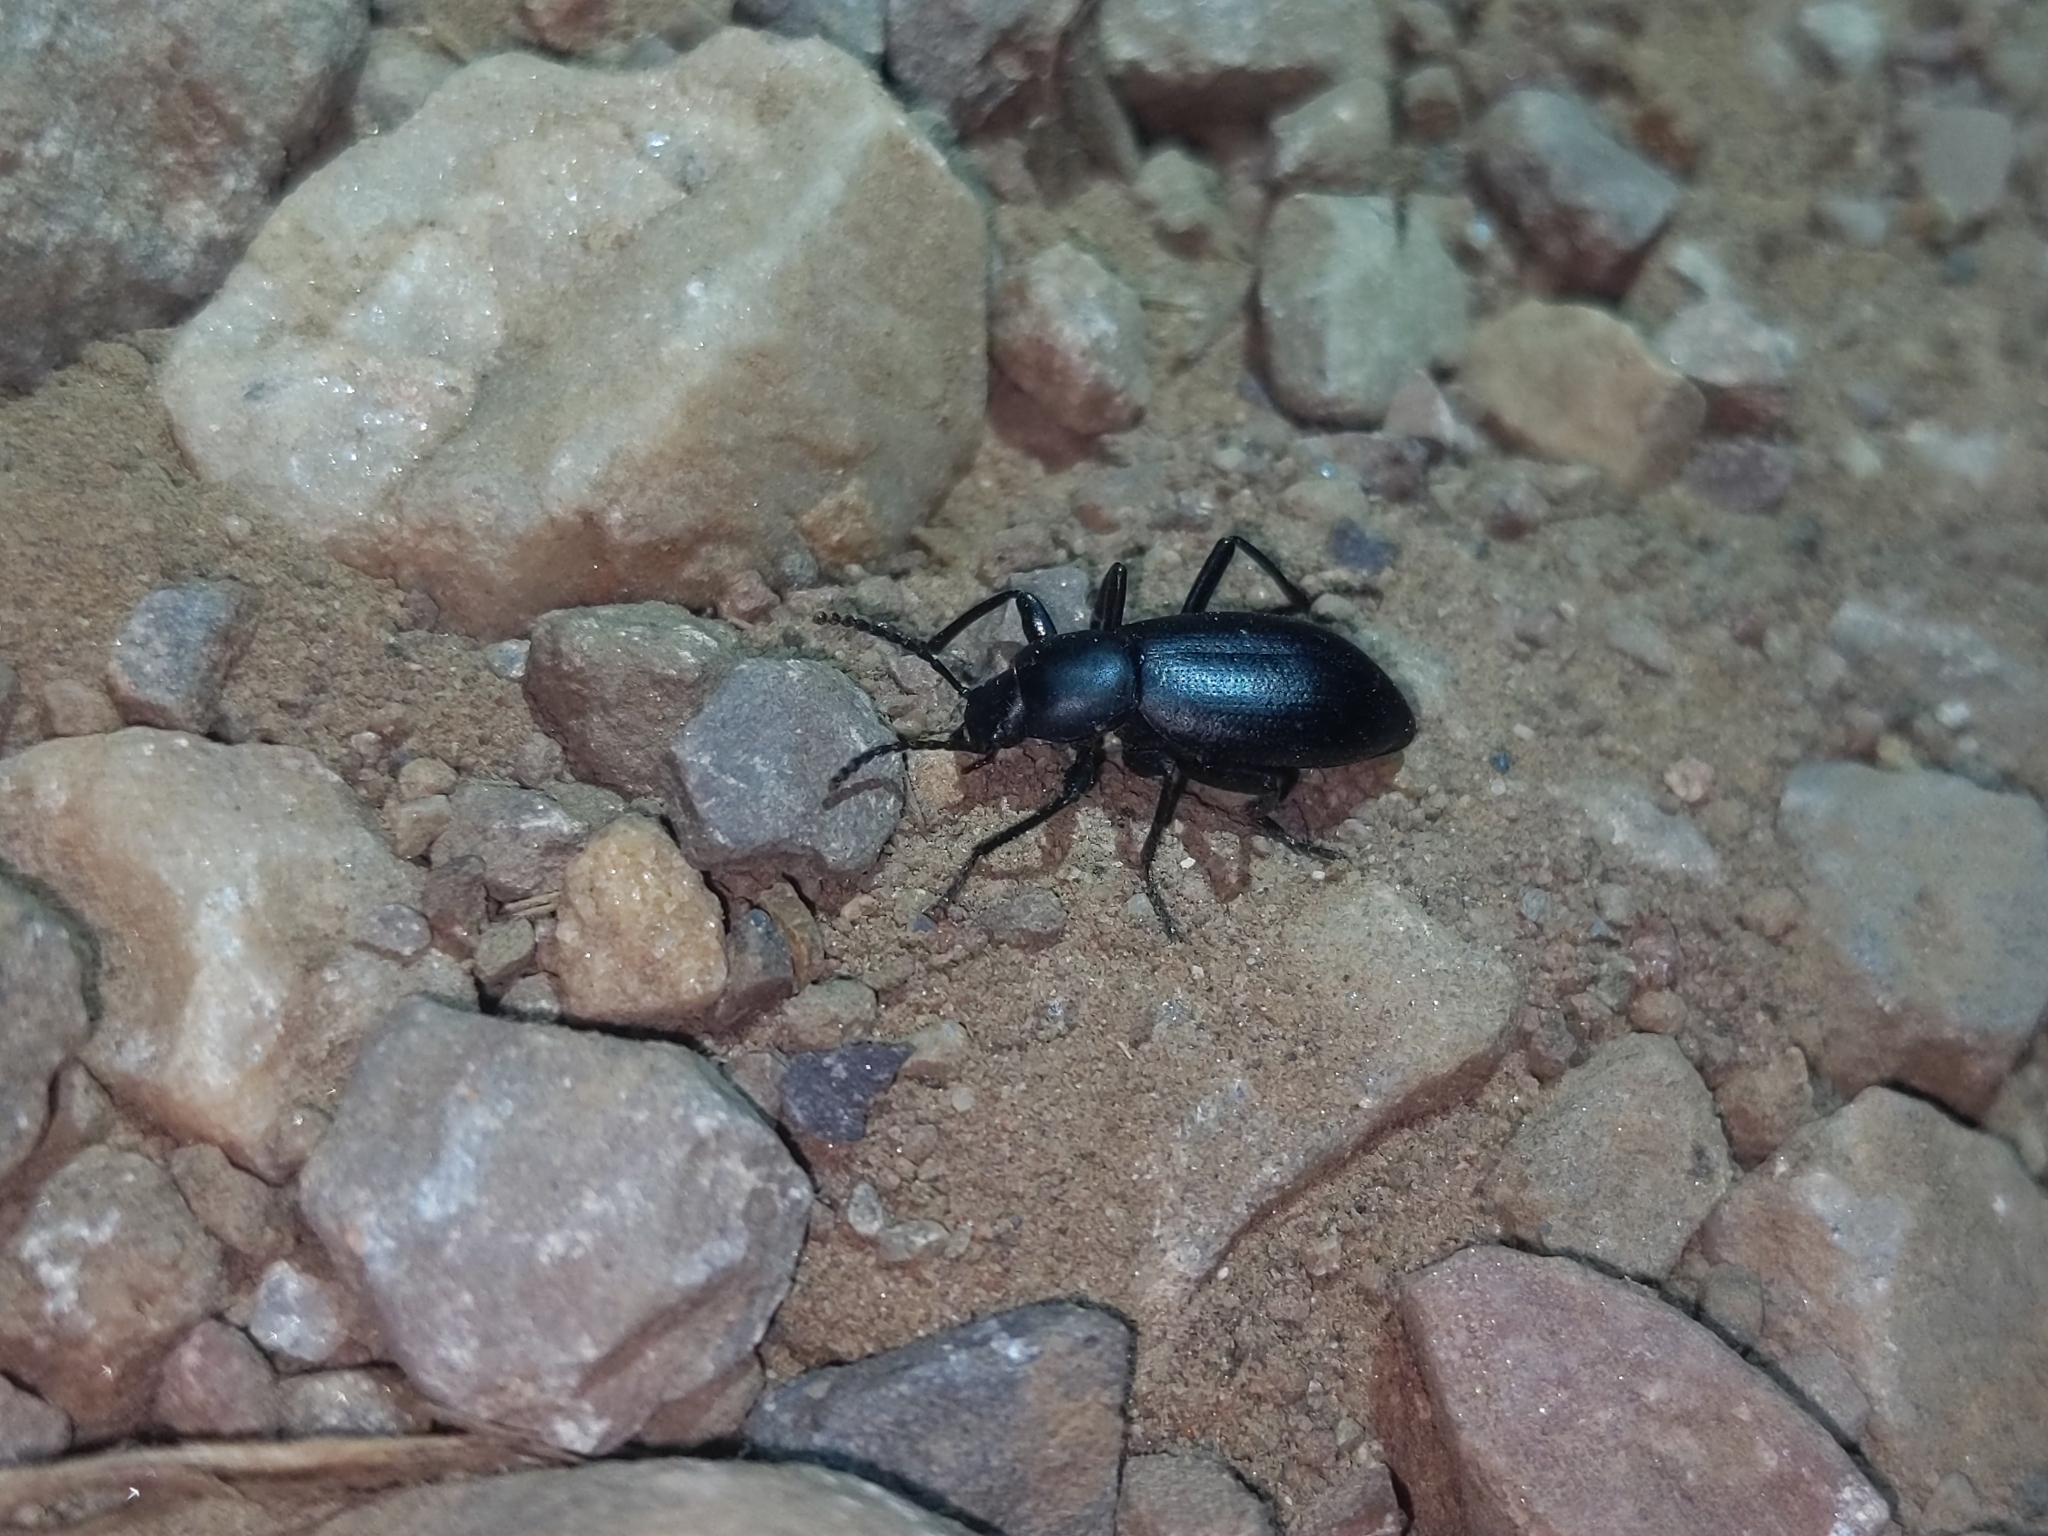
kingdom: Animalia
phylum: Arthropoda
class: Insecta
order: Coleoptera
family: Tenebrionidae
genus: Eleodes
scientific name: Eleodes delicata
